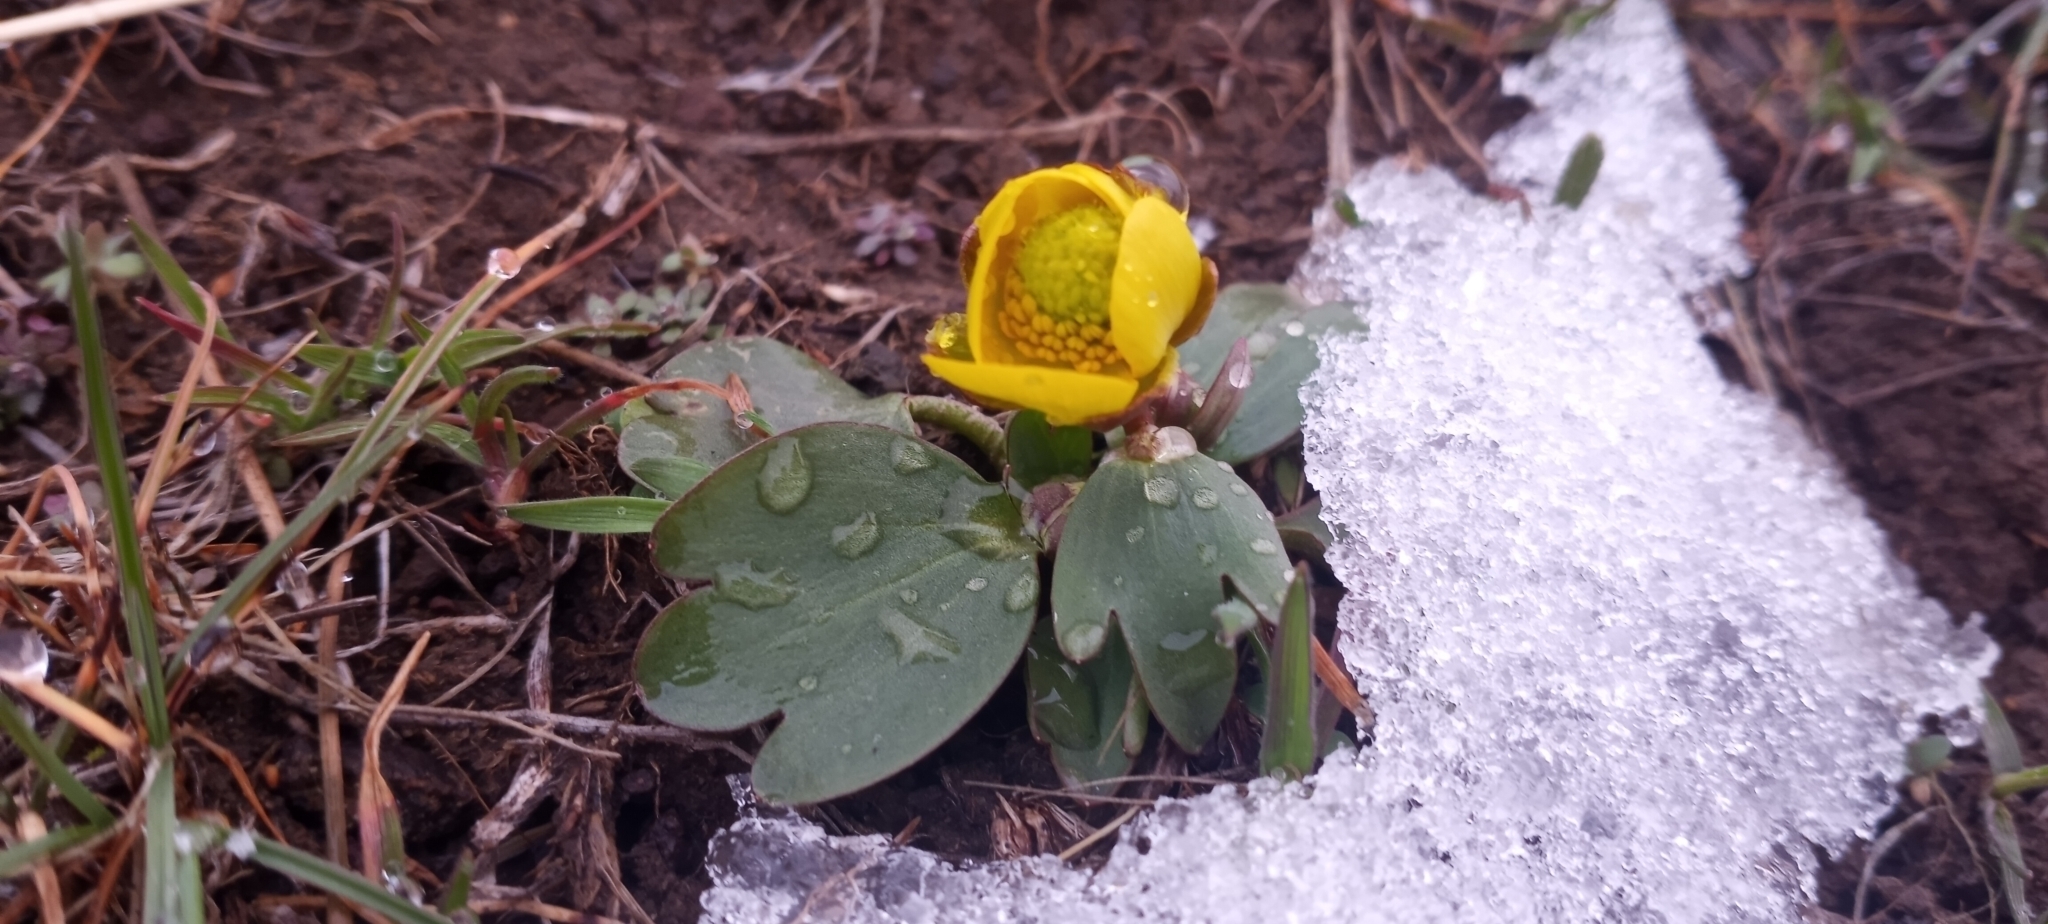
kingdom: Plantae
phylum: Tracheophyta
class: Magnoliopsida
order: Ranunculales
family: Ranunculaceae
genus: Ranunculus
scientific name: Ranunculus glaberrimus
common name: Sagebrush buttercup
